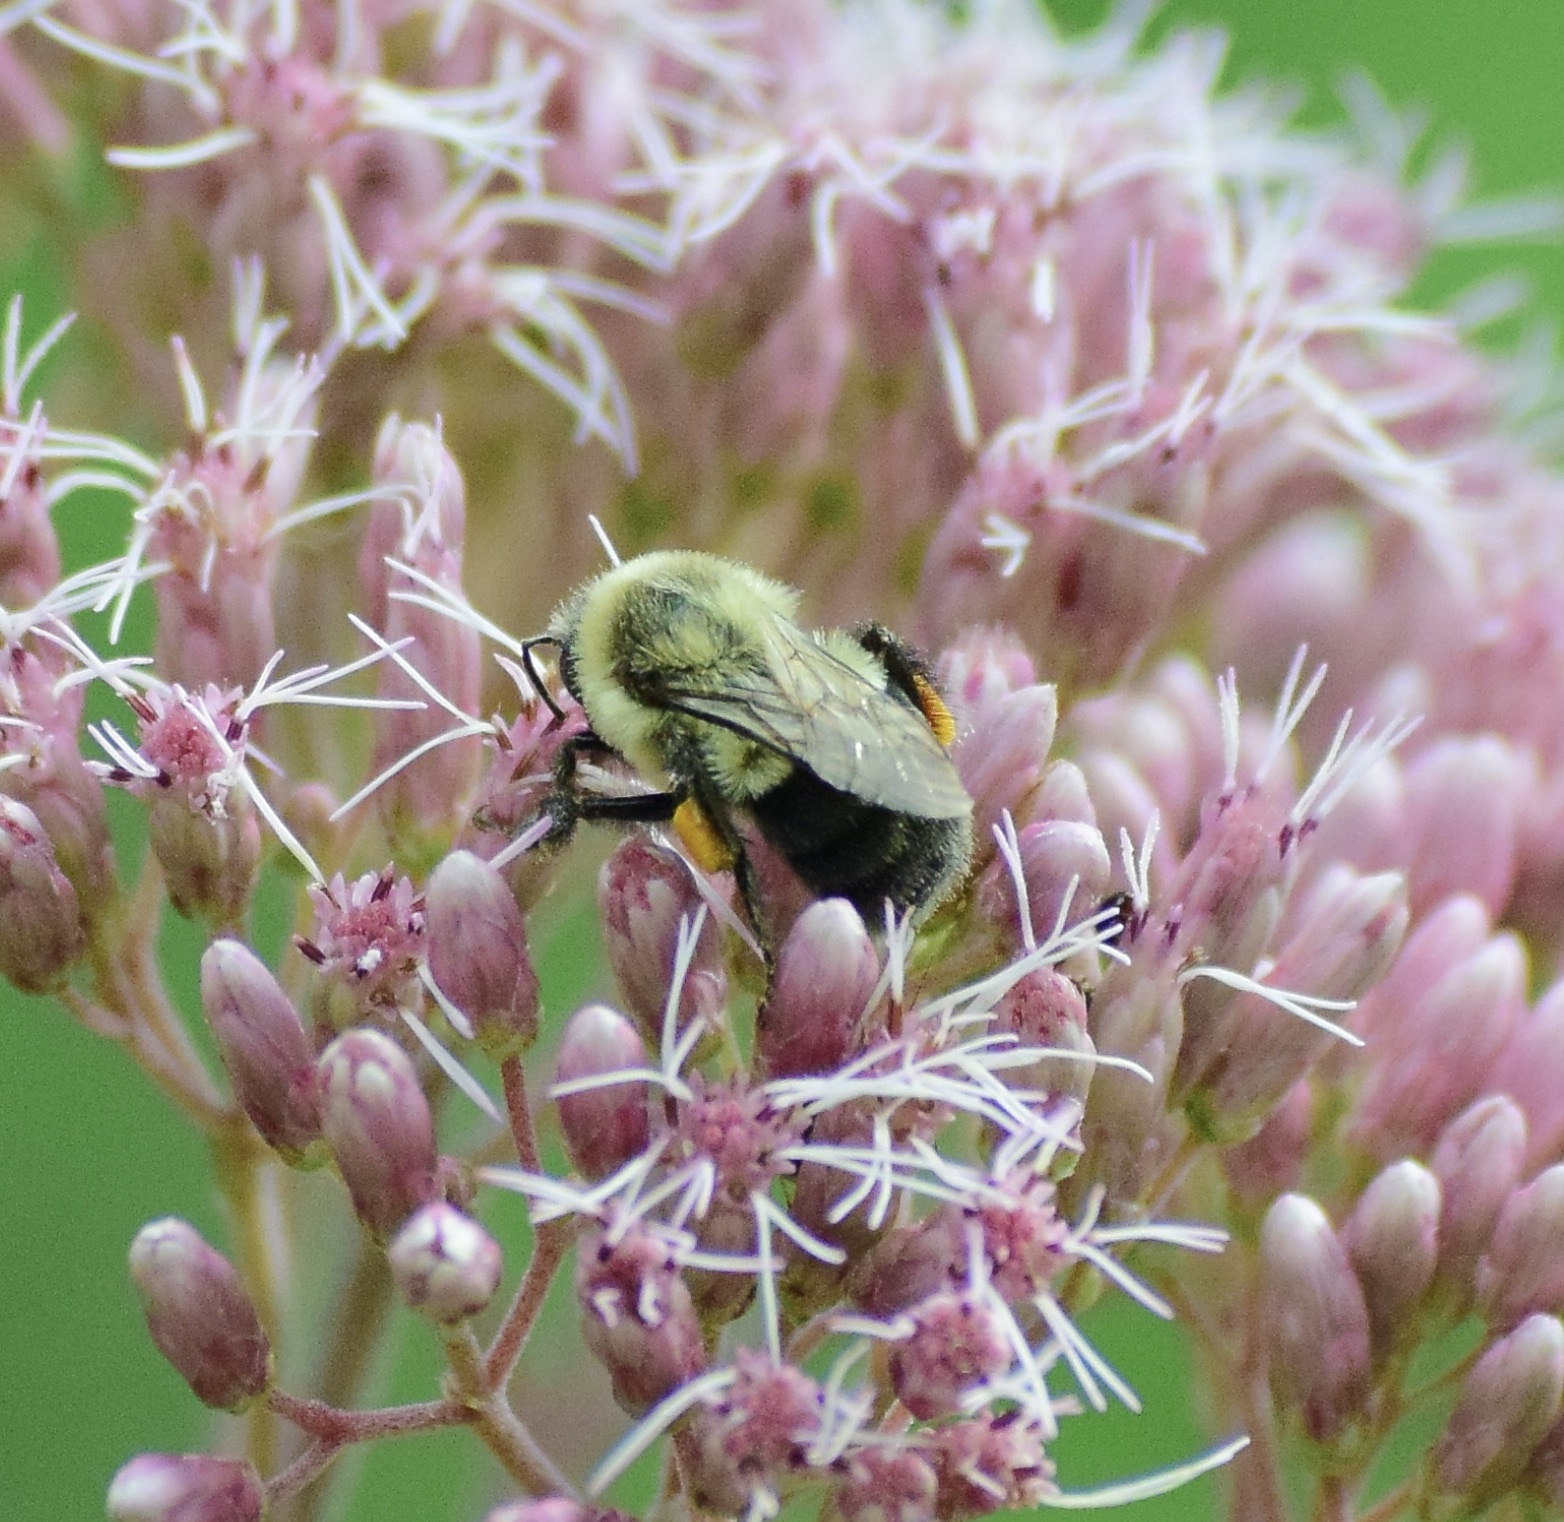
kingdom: Animalia
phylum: Arthropoda
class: Insecta
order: Hymenoptera
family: Apidae
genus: Bombus
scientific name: Bombus impatiens
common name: Common eastern bumble bee
